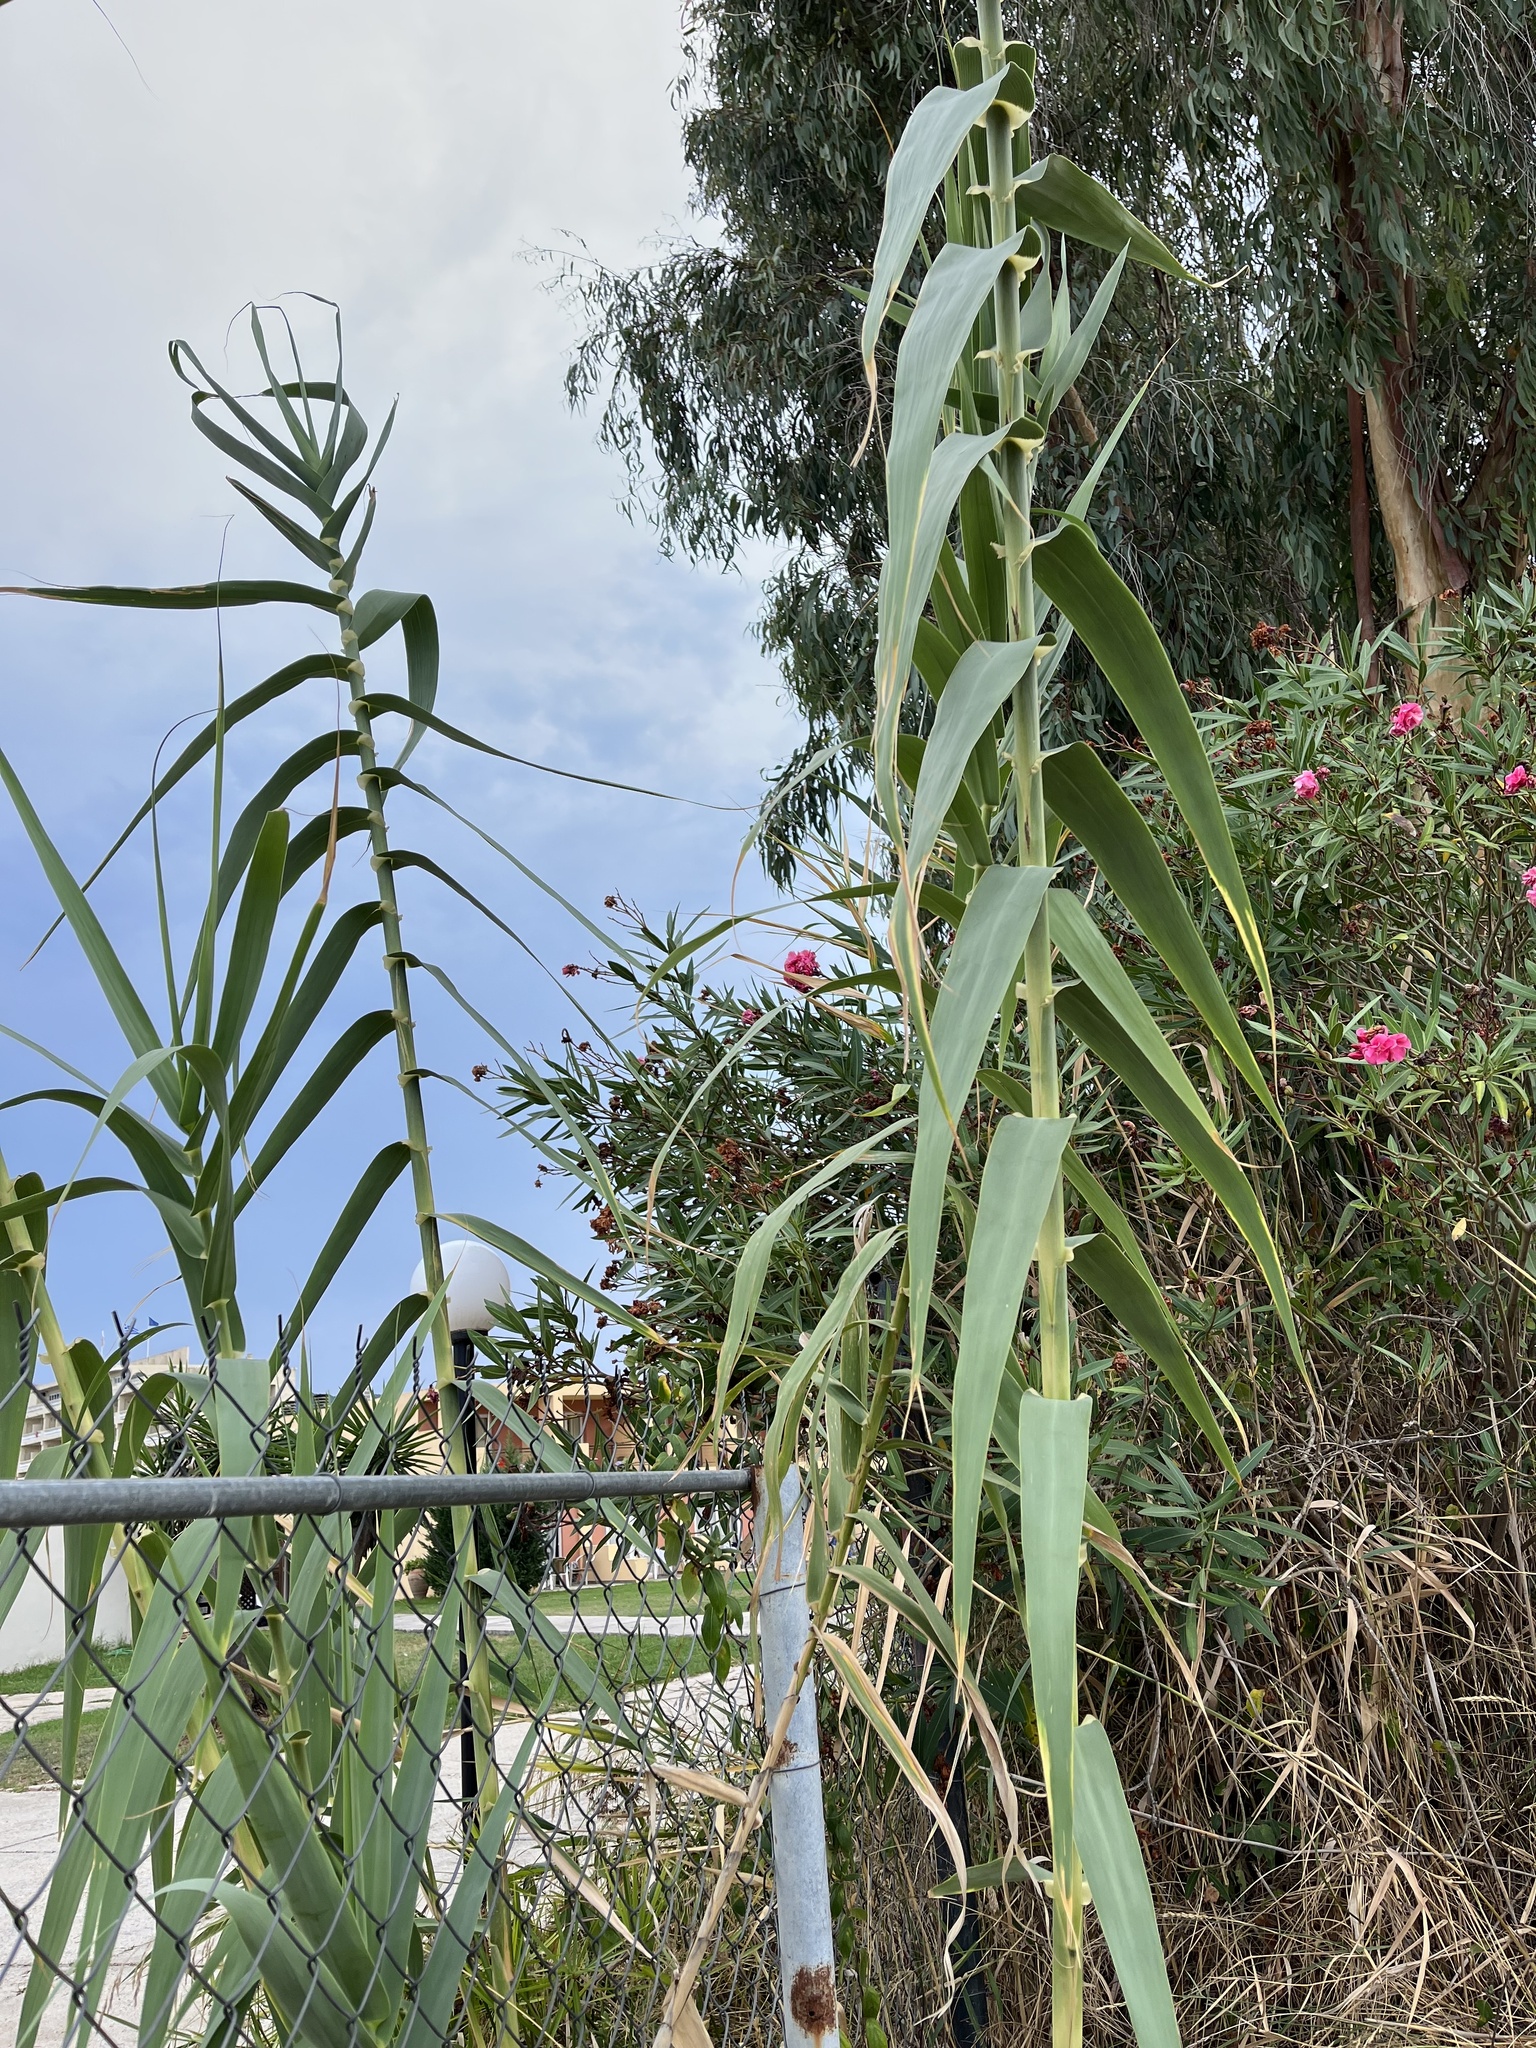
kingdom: Plantae
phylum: Tracheophyta
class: Liliopsida
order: Poales
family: Poaceae
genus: Arundo
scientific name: Arundo donax
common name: Giant reed
